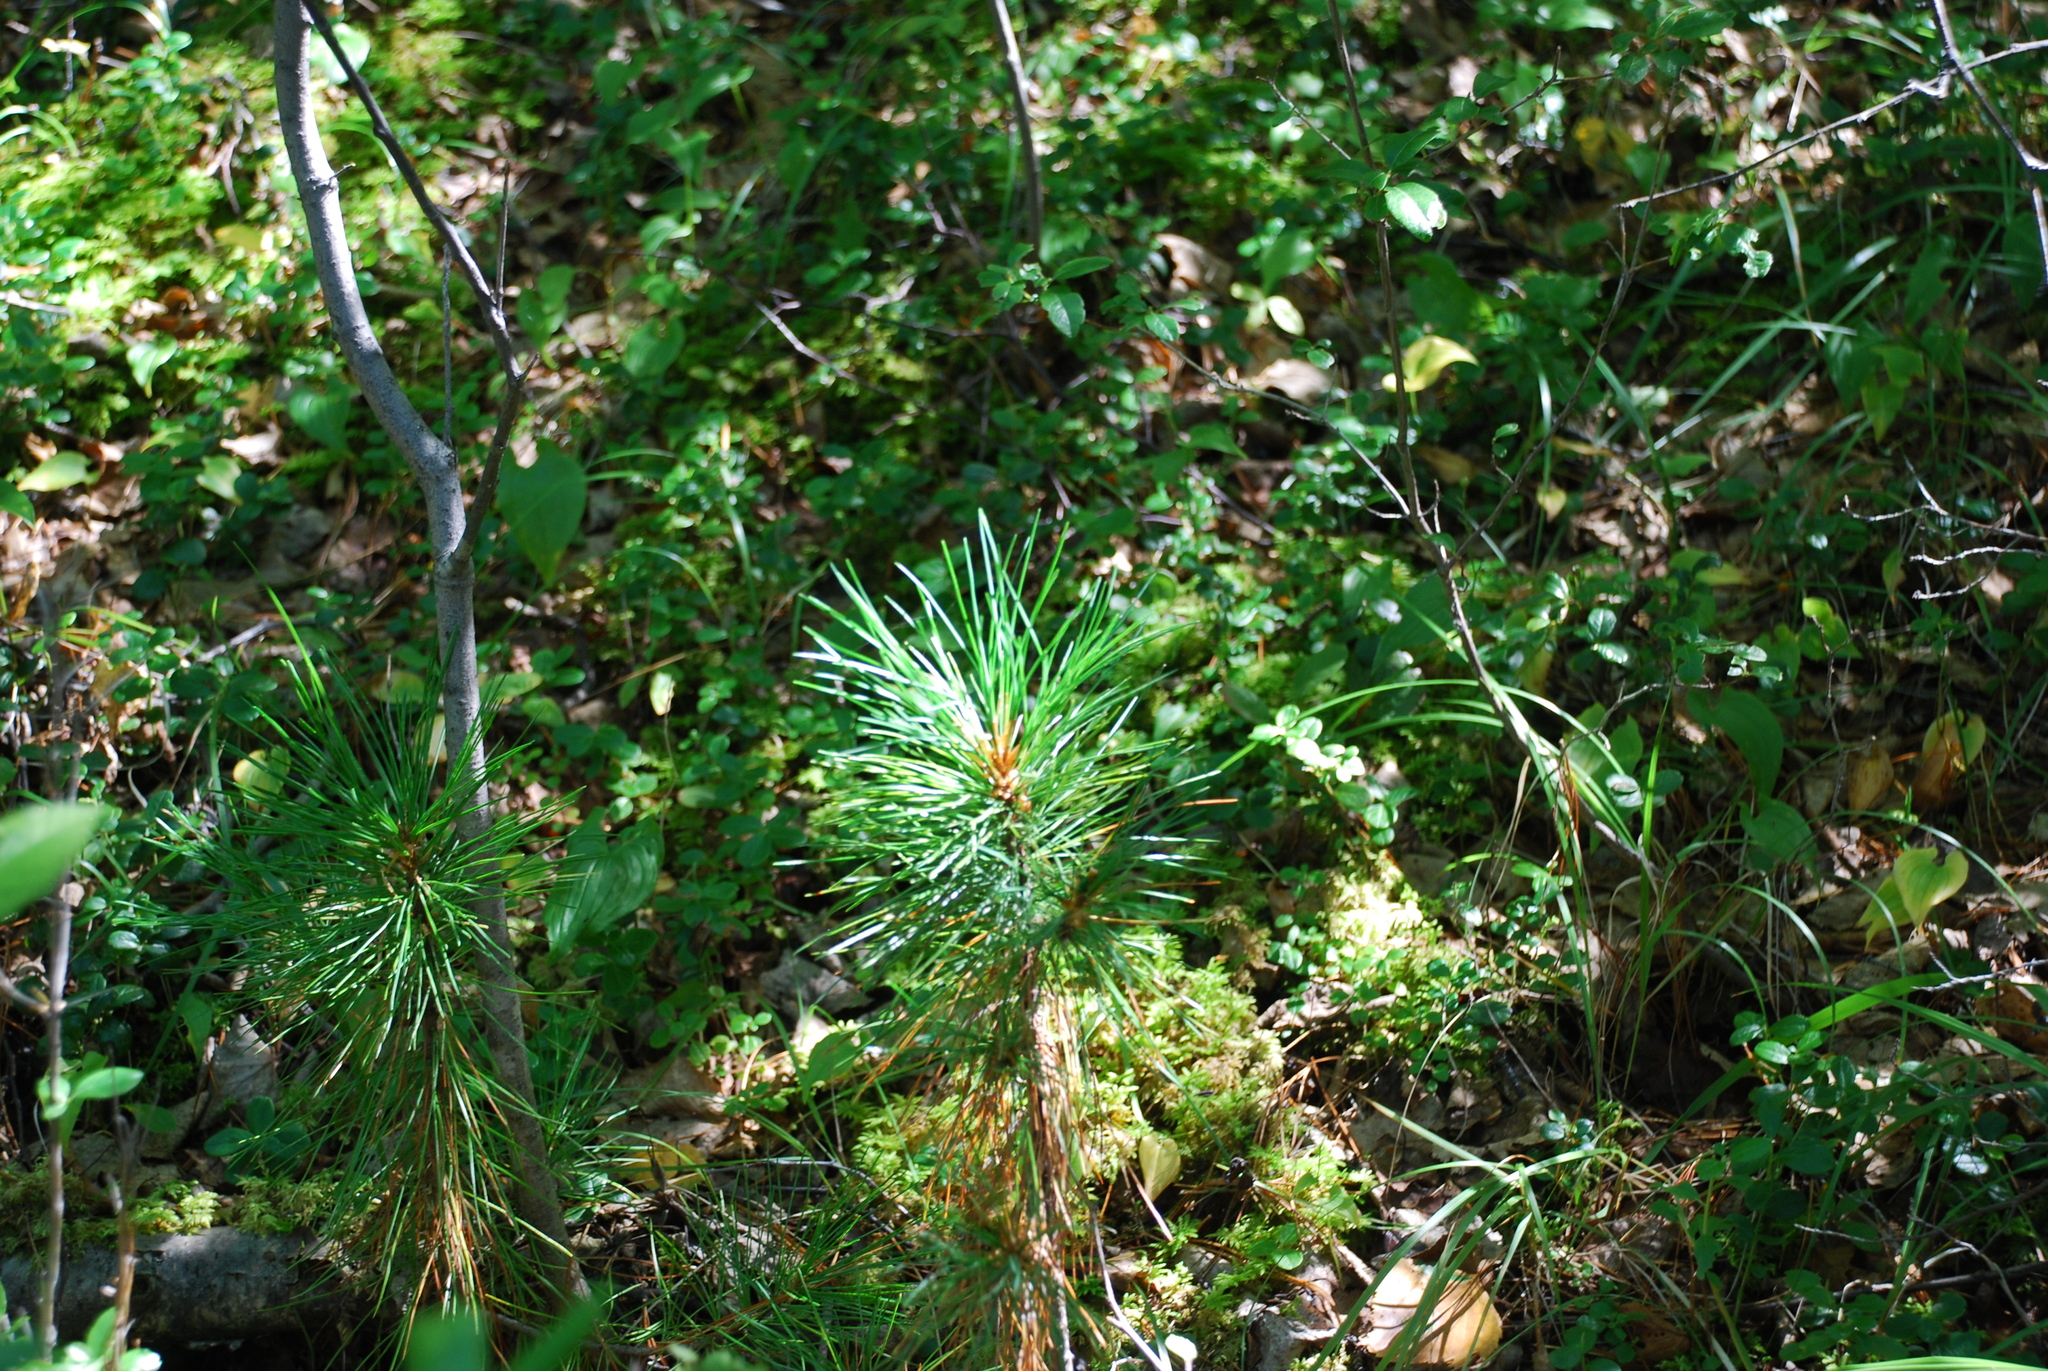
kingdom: Plantae
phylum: Tracheophyta
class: Pinopsida
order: Pinales
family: Pinaceae
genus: Pinus
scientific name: Pinus sibirica
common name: Siberian pine
